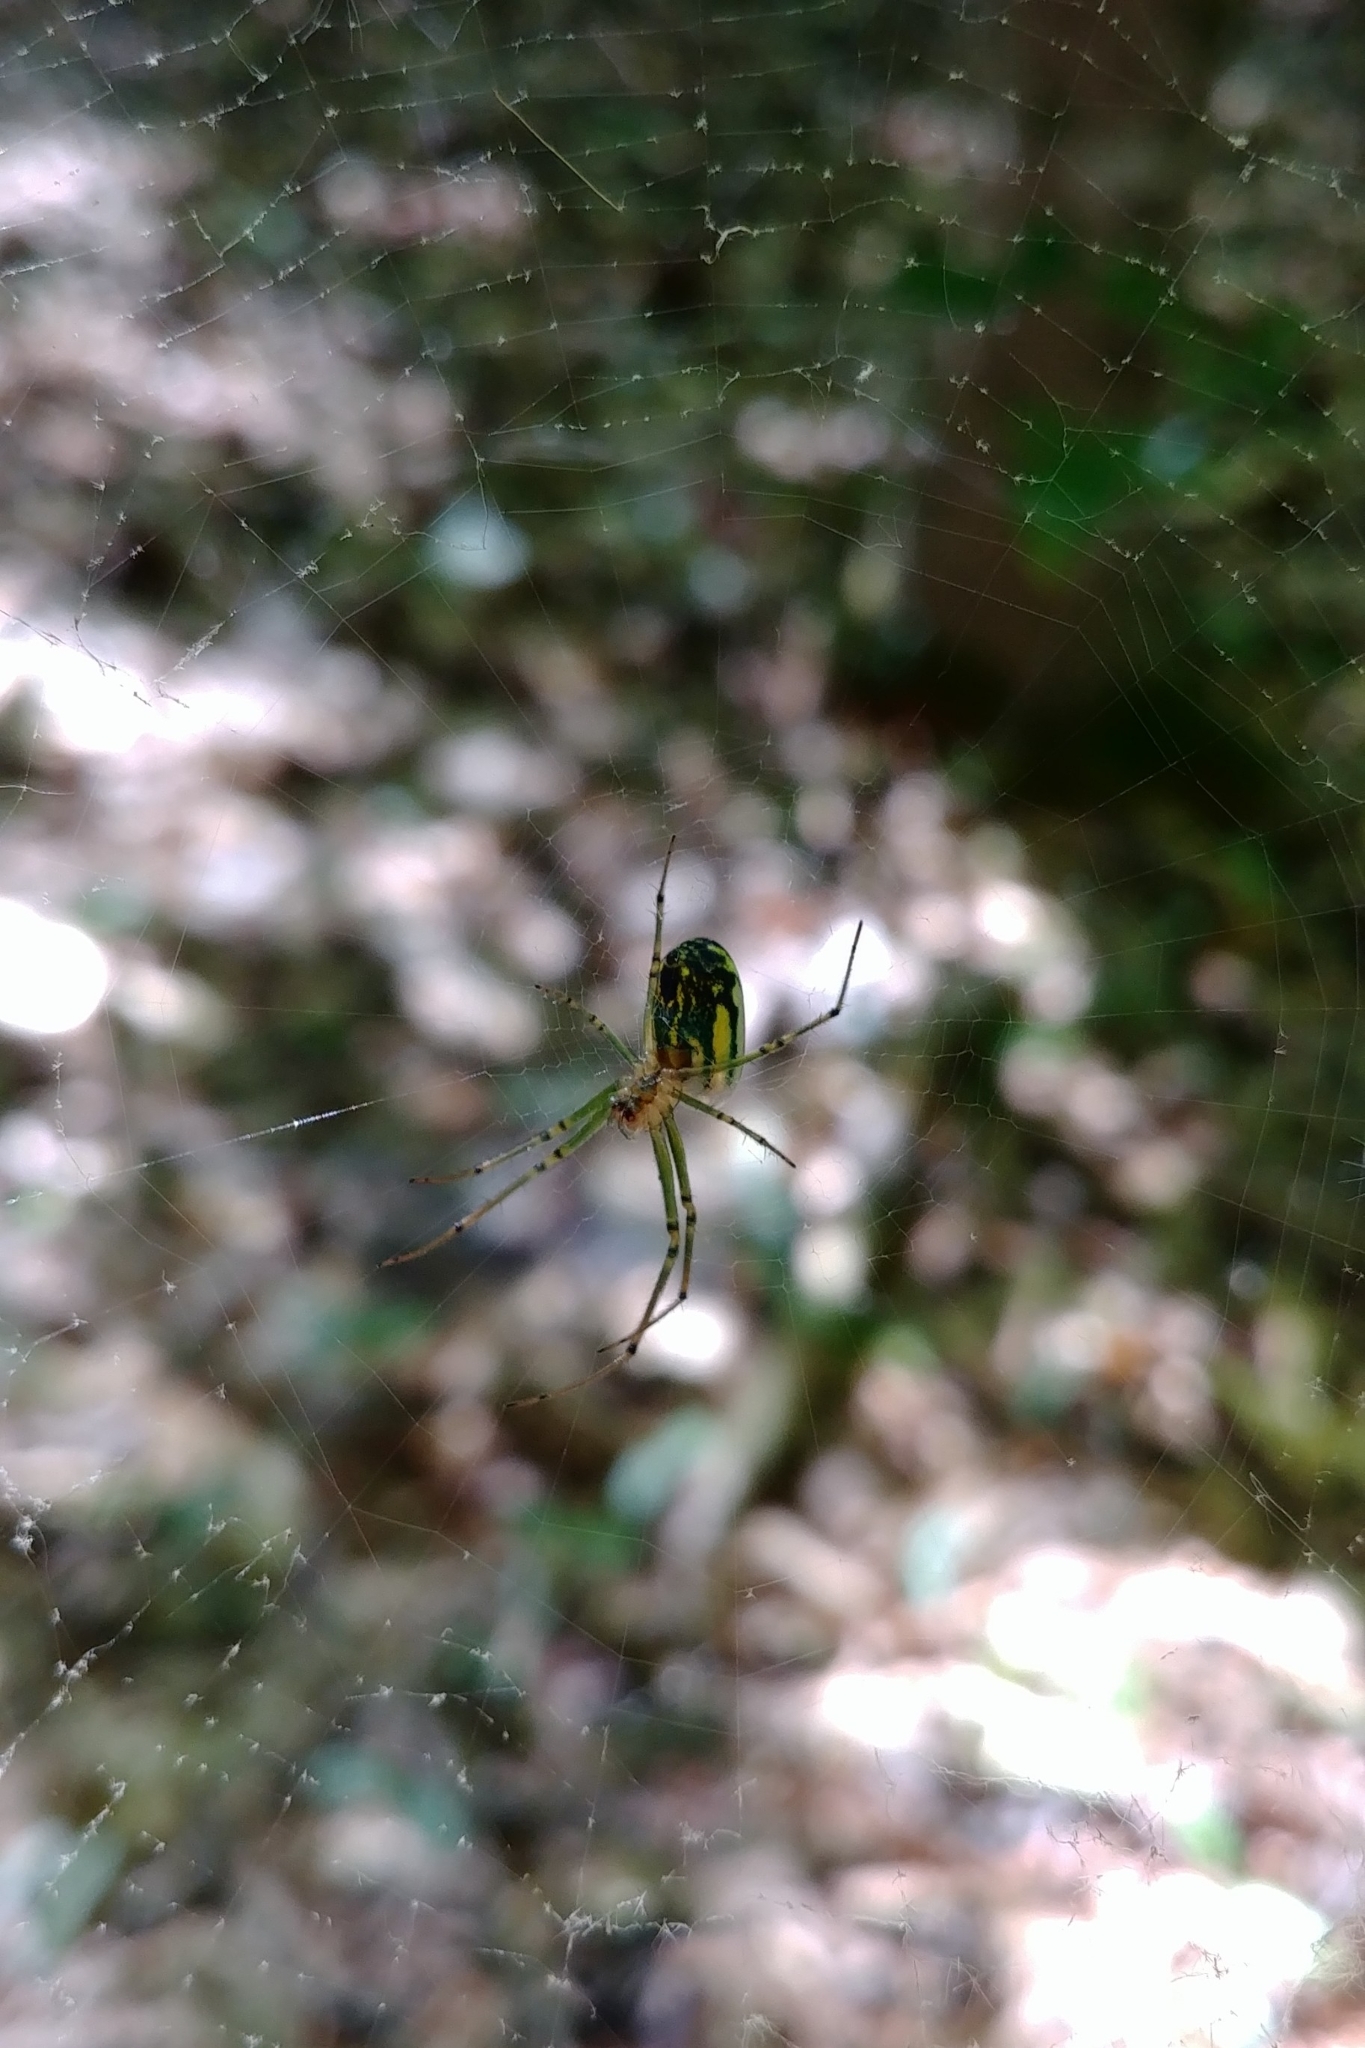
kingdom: Animalia
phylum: Arthropoda
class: Arachnida
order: Araneae
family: Tetragnathidae
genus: Leucauge
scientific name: Leucauge venusta
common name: Longjawed orb weavers
